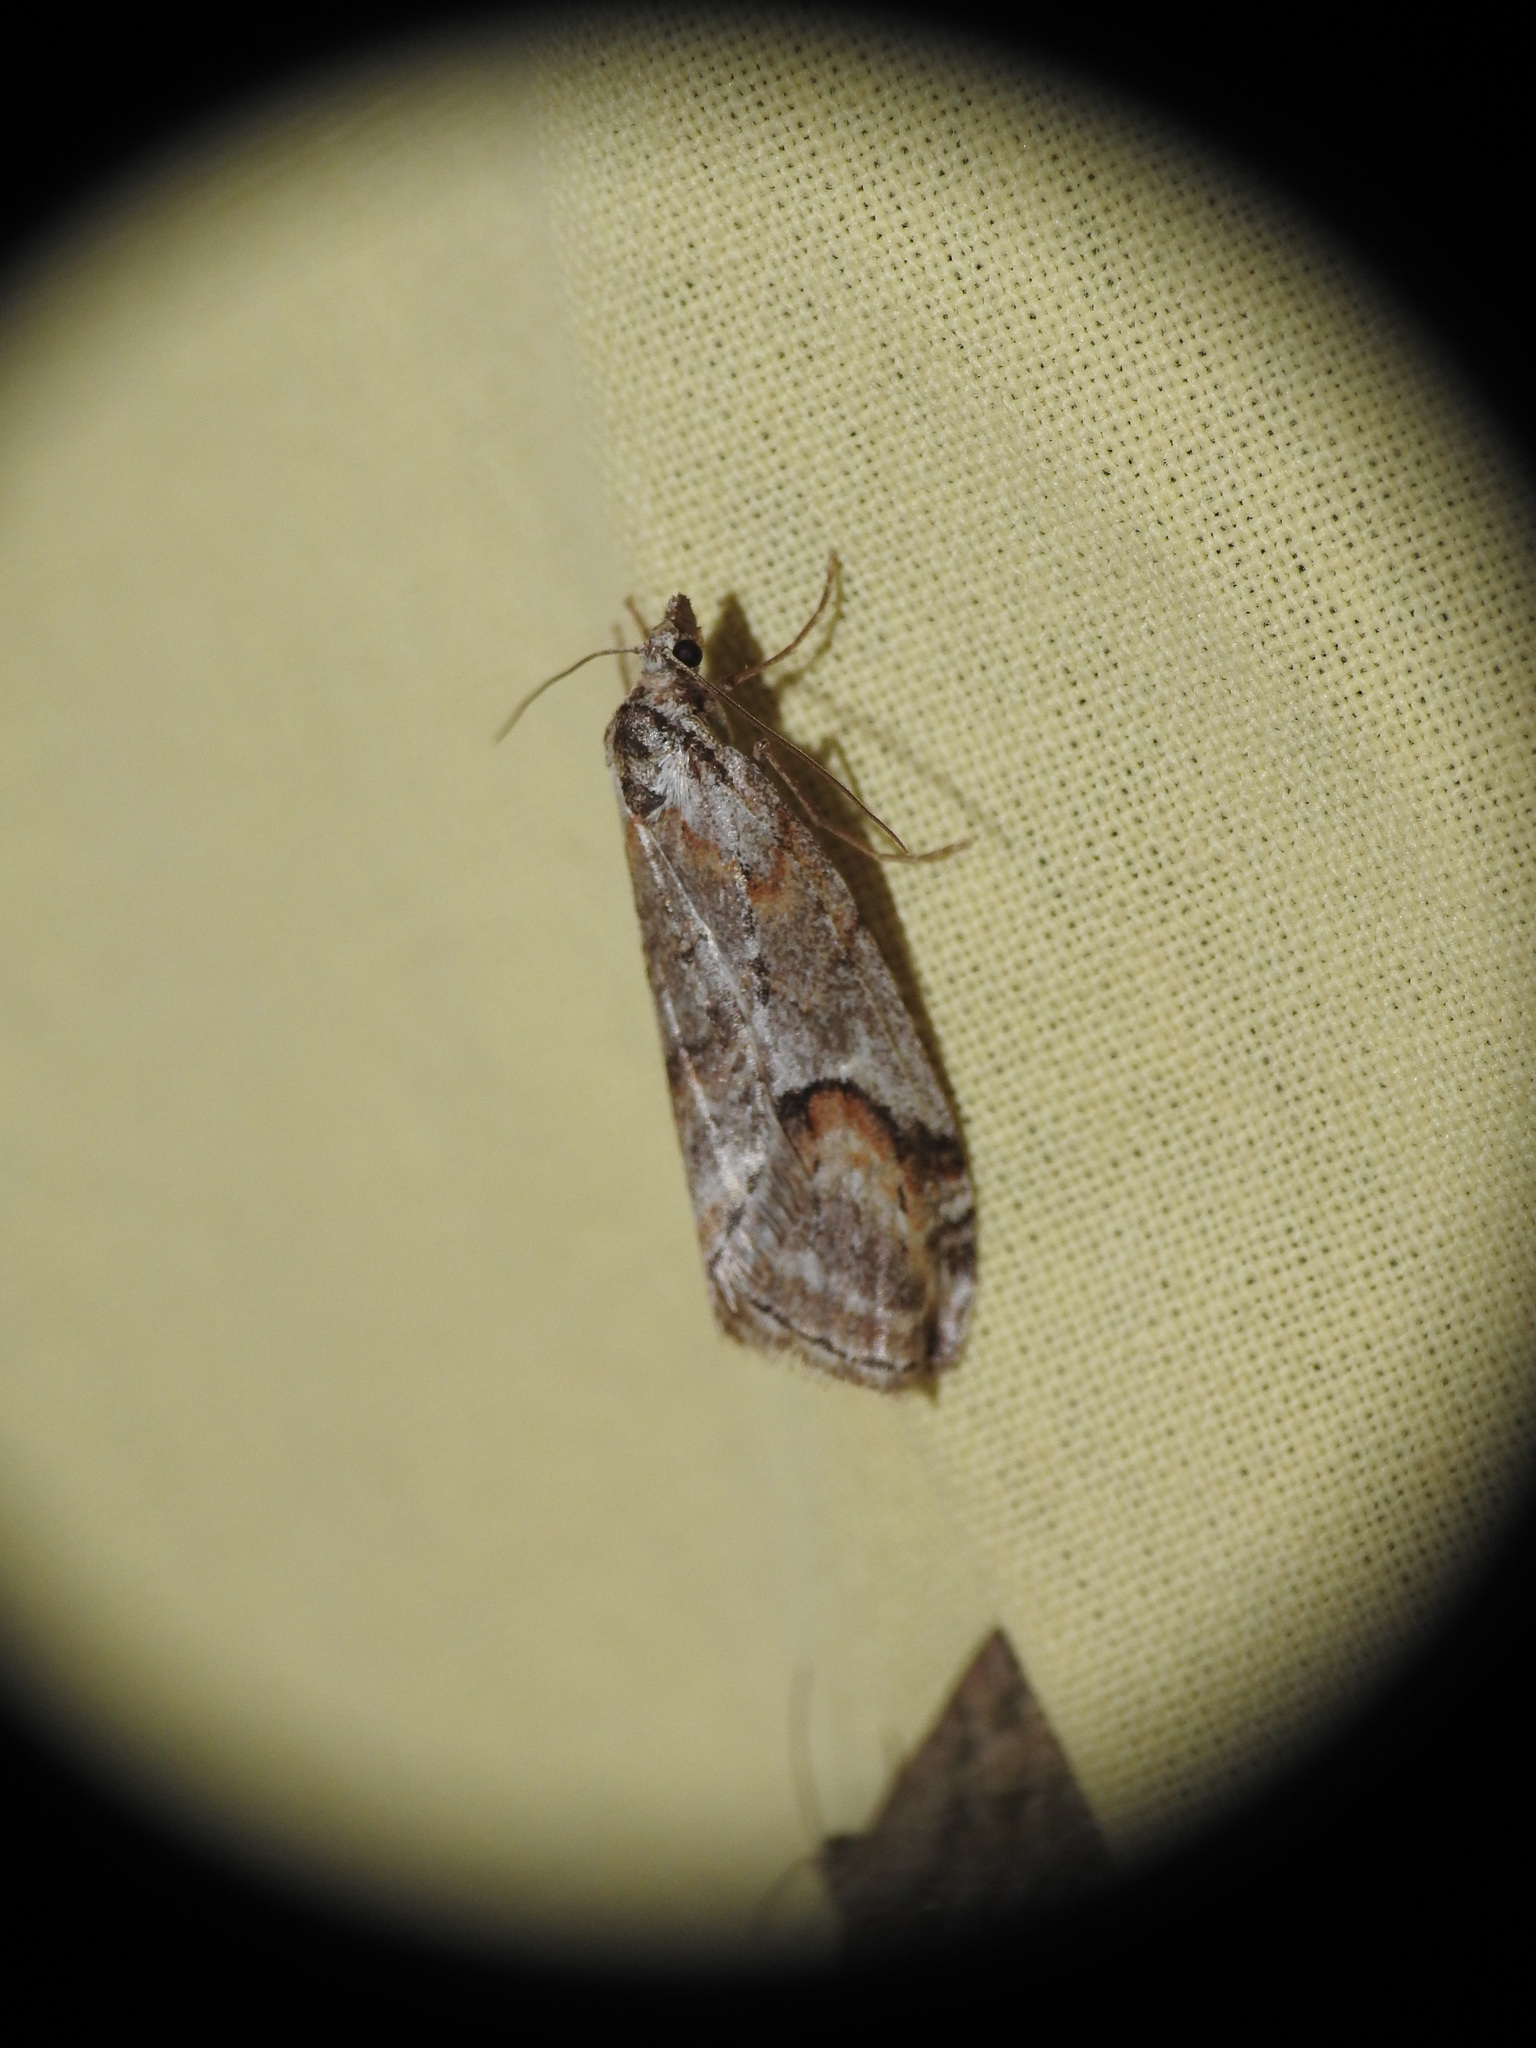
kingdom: Animalia
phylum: Arthropoda
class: Insecta
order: Lepidoptera
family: Geometridae
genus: Chesias
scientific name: Chesias rufata
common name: Broom-tip
